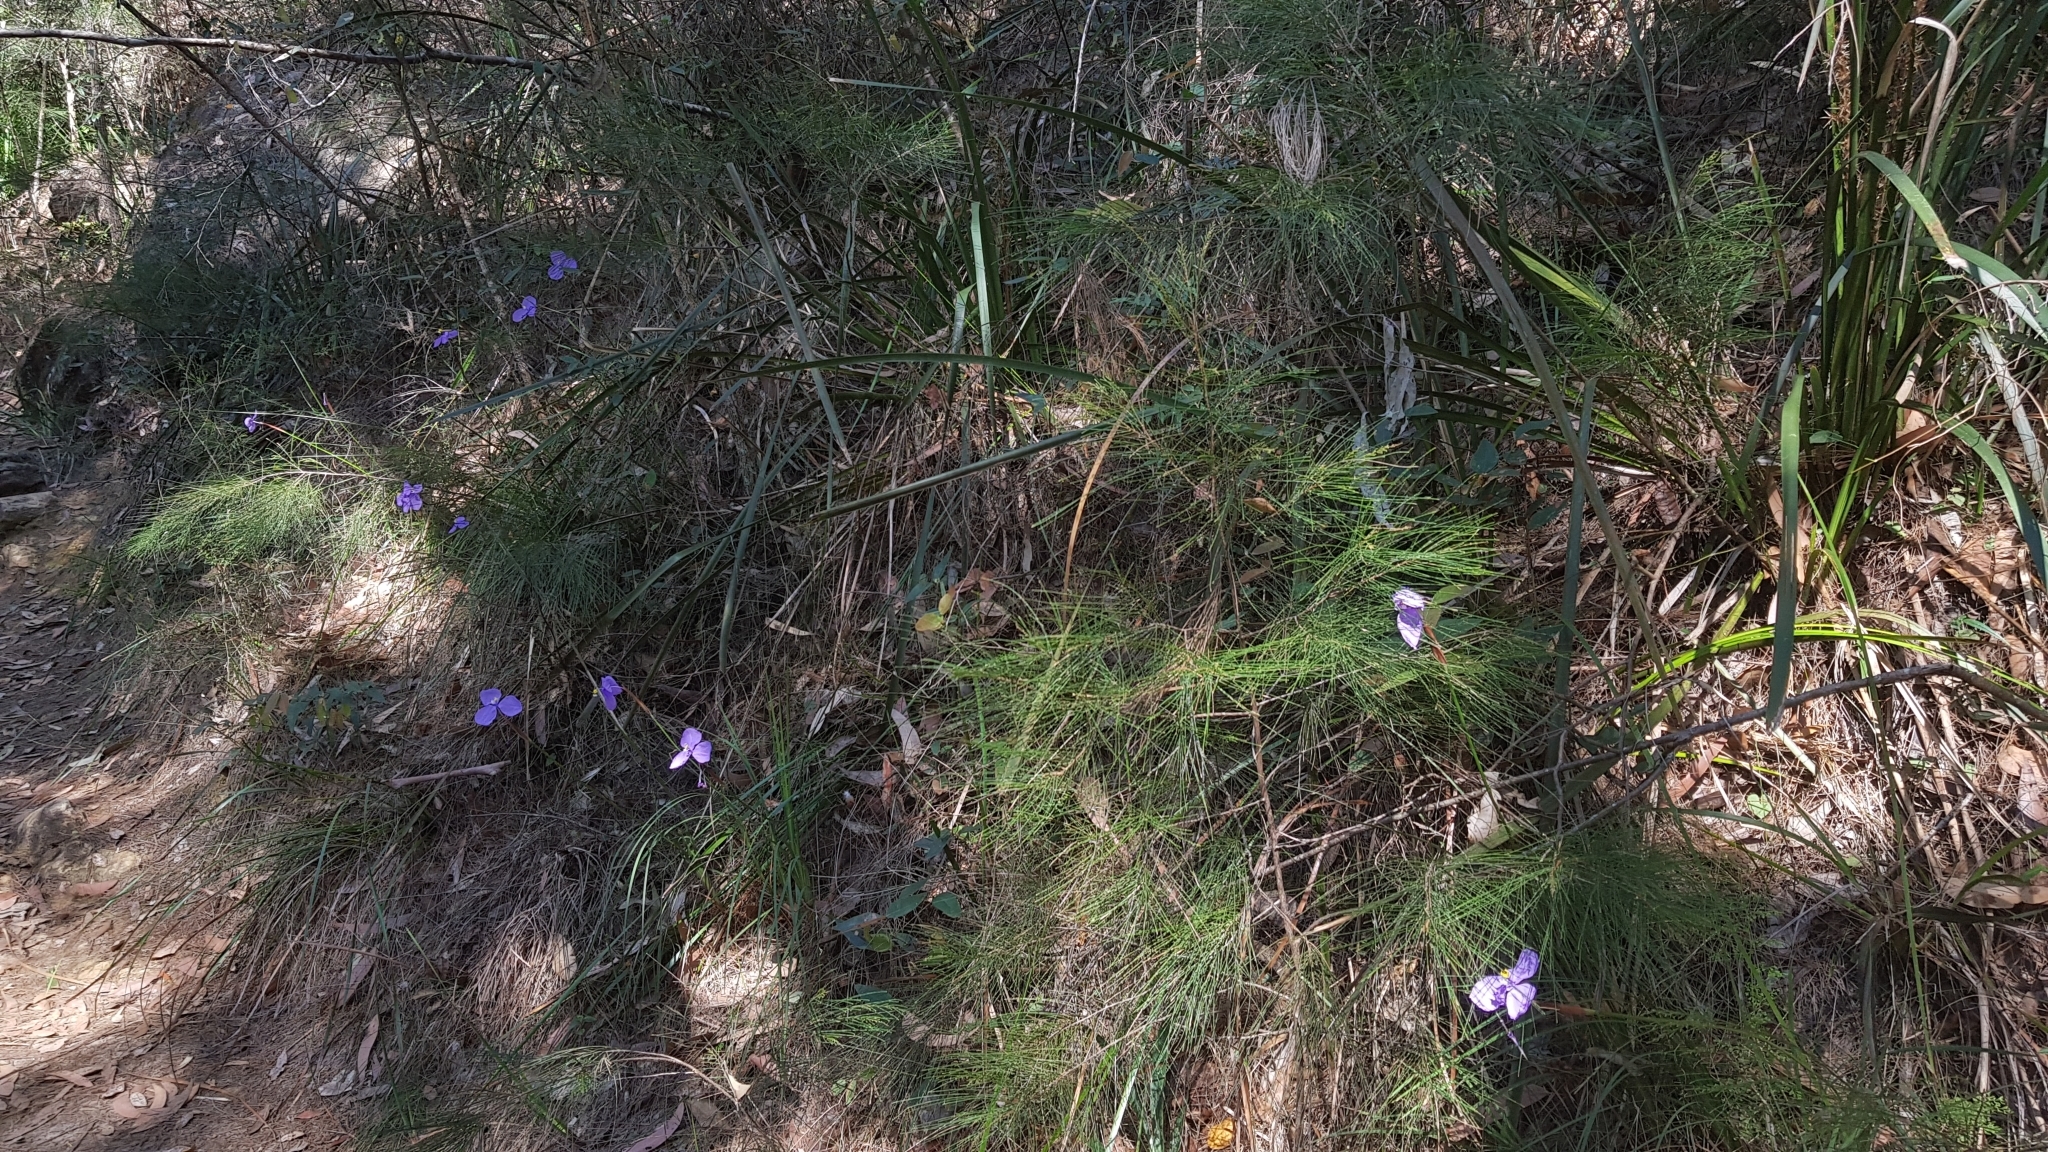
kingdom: Plantae
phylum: Tracheophyta
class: Liliopsida
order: Asparagales
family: Iridaceae
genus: Patersonia
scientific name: Patersonia glabrata
